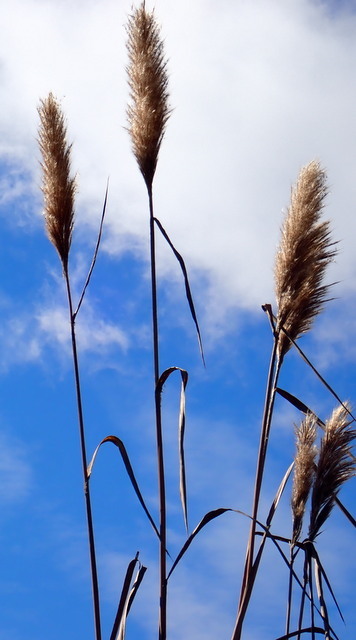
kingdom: Plantae
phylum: Tracheophyta
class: Liliopsida
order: Poales
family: Poaceae
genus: Erianthus
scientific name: Erianthus giganteus
